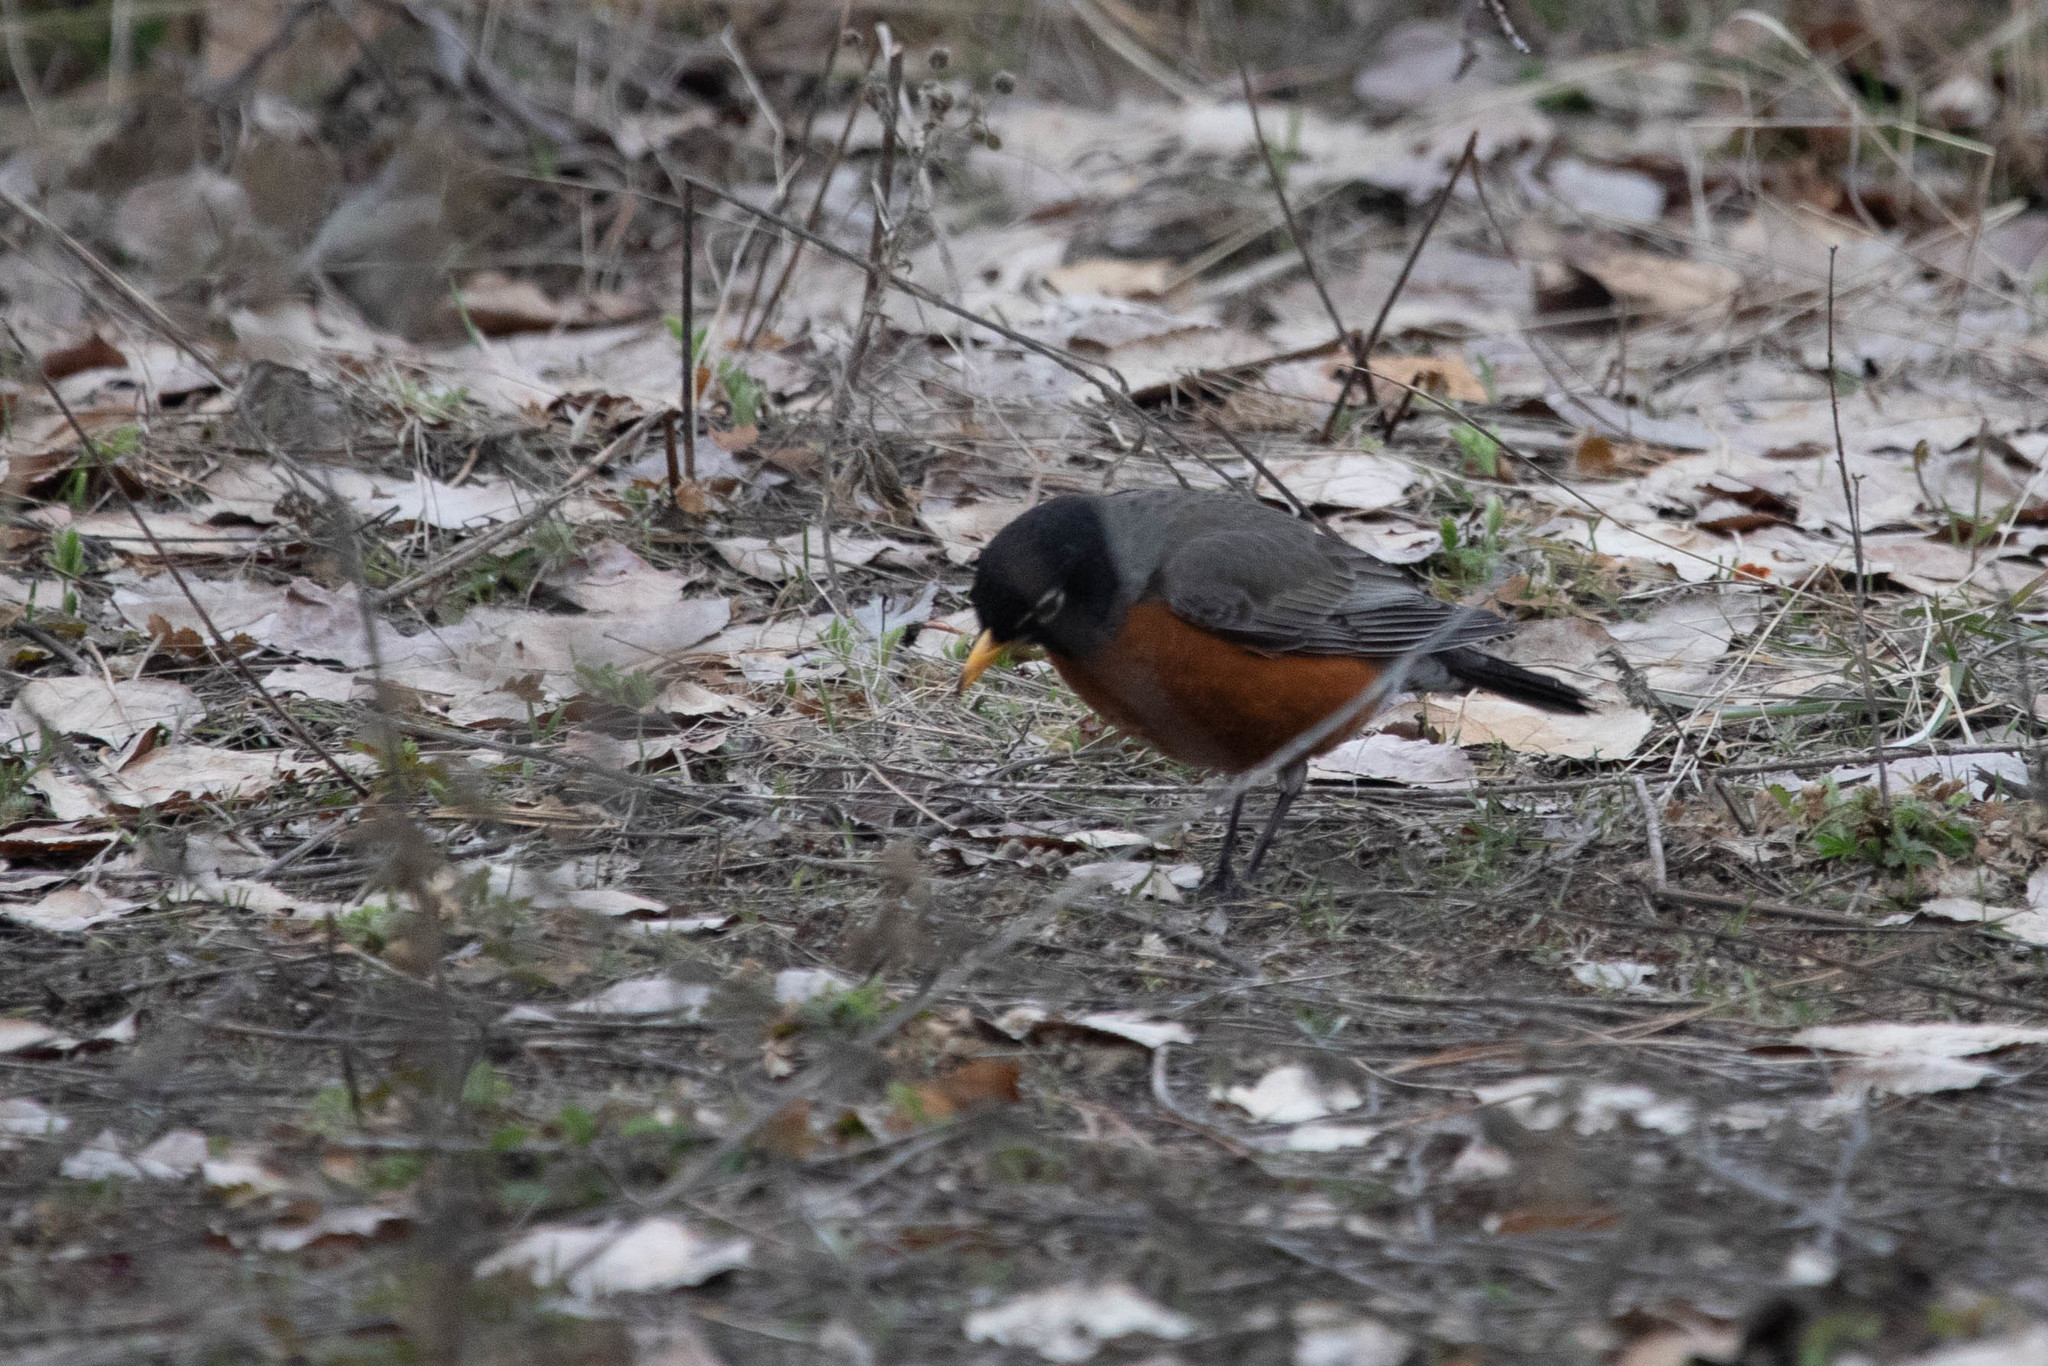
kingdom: Animalia
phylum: Chordata
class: Aves
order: Passeriformes
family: Turdidae
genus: Turdus
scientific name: Turdus migratorius
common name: American robin
